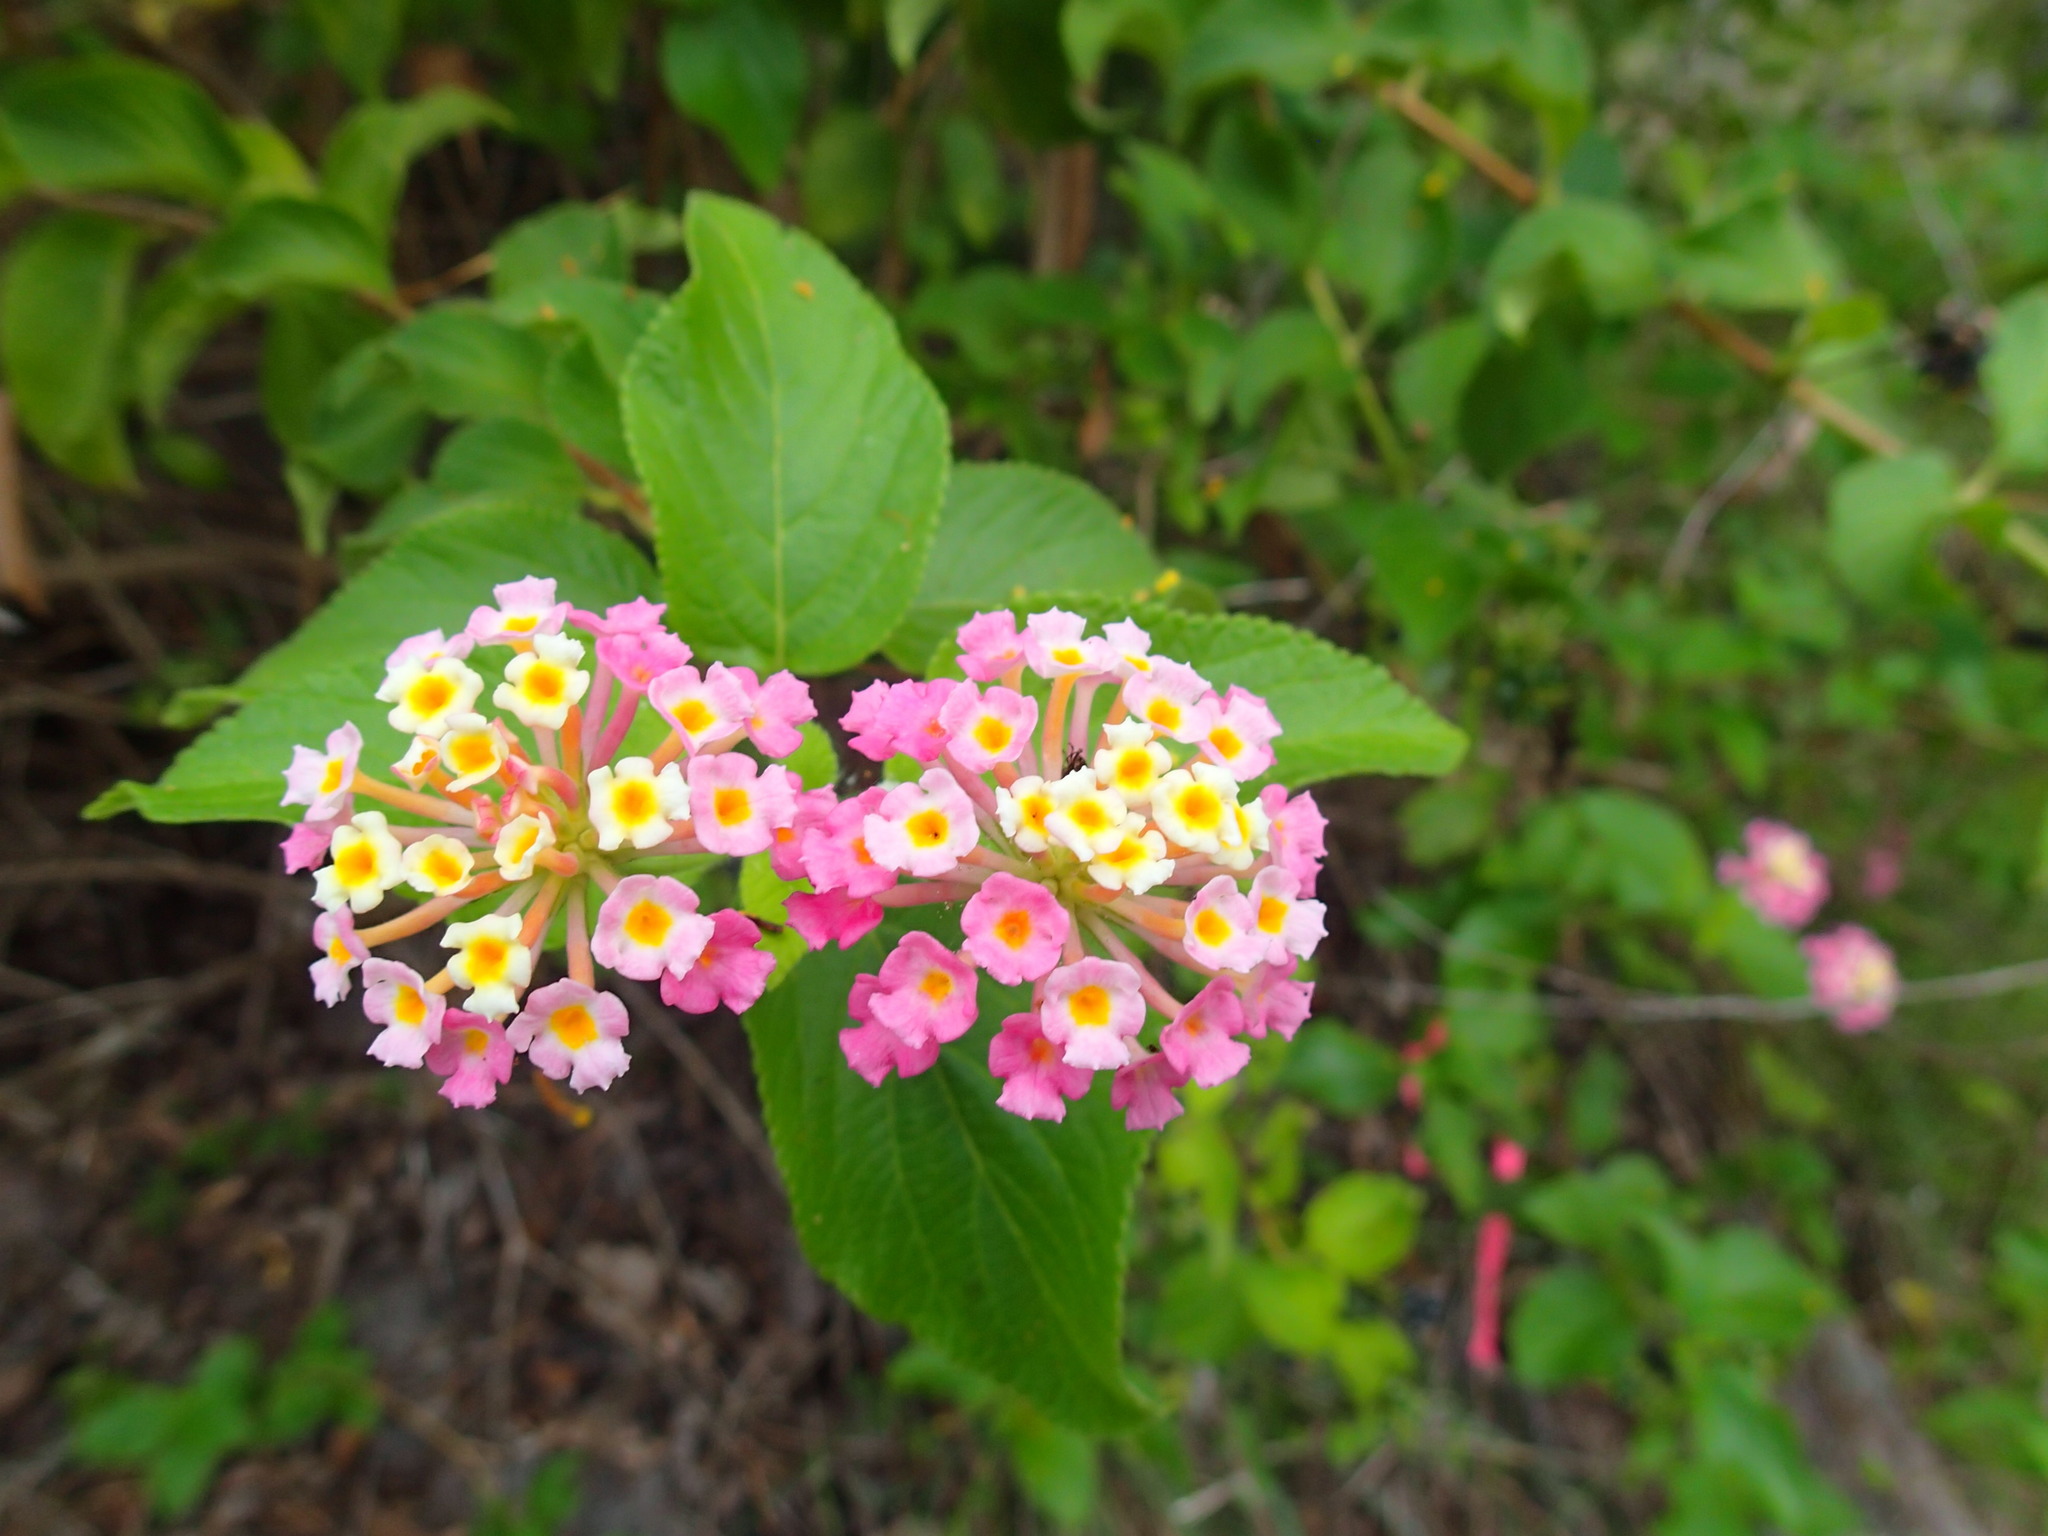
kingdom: Plantae
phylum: Tracheophyta
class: Magnoliopsida
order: Lamiales
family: Verbenaceae
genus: Lantana
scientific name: Lantana camara
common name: Lantana
